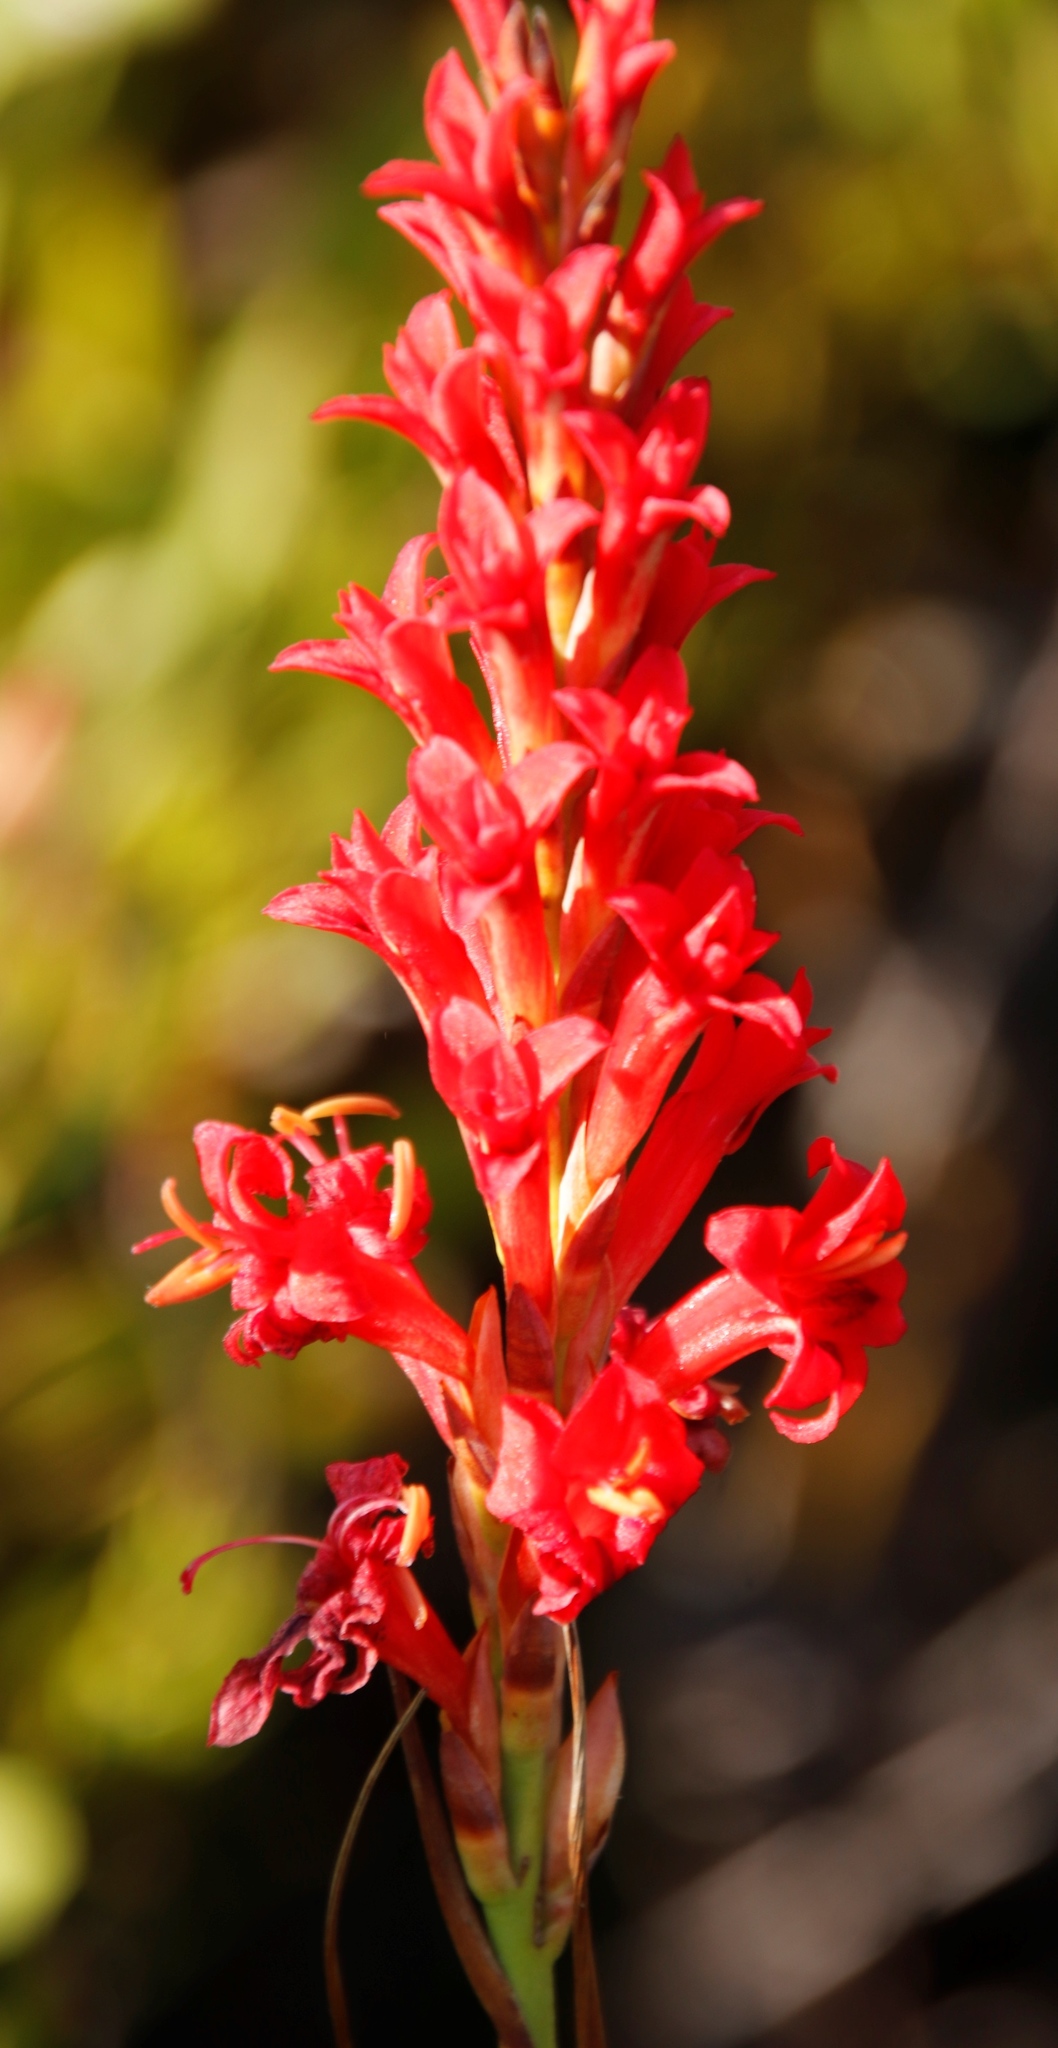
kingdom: Plantae
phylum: Tracheophyta
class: Liliopsida
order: Asparagales
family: Iridaceae
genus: Tritoniopsis
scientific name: Tritoniopsis triticea
